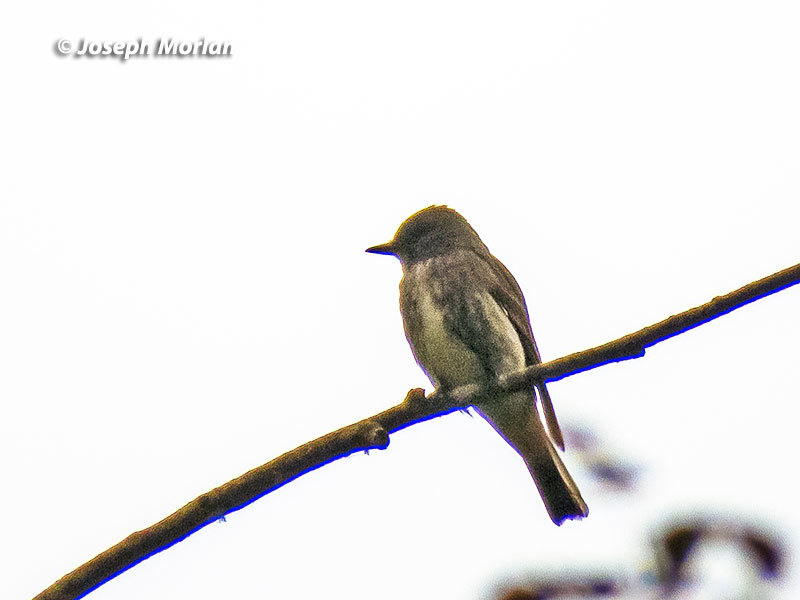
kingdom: Animalia
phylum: Chordata
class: Aves
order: Passeriformes
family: Tyrannidae
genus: Contopus
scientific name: Contopus cooperi
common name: Olive-sided flycatcher
